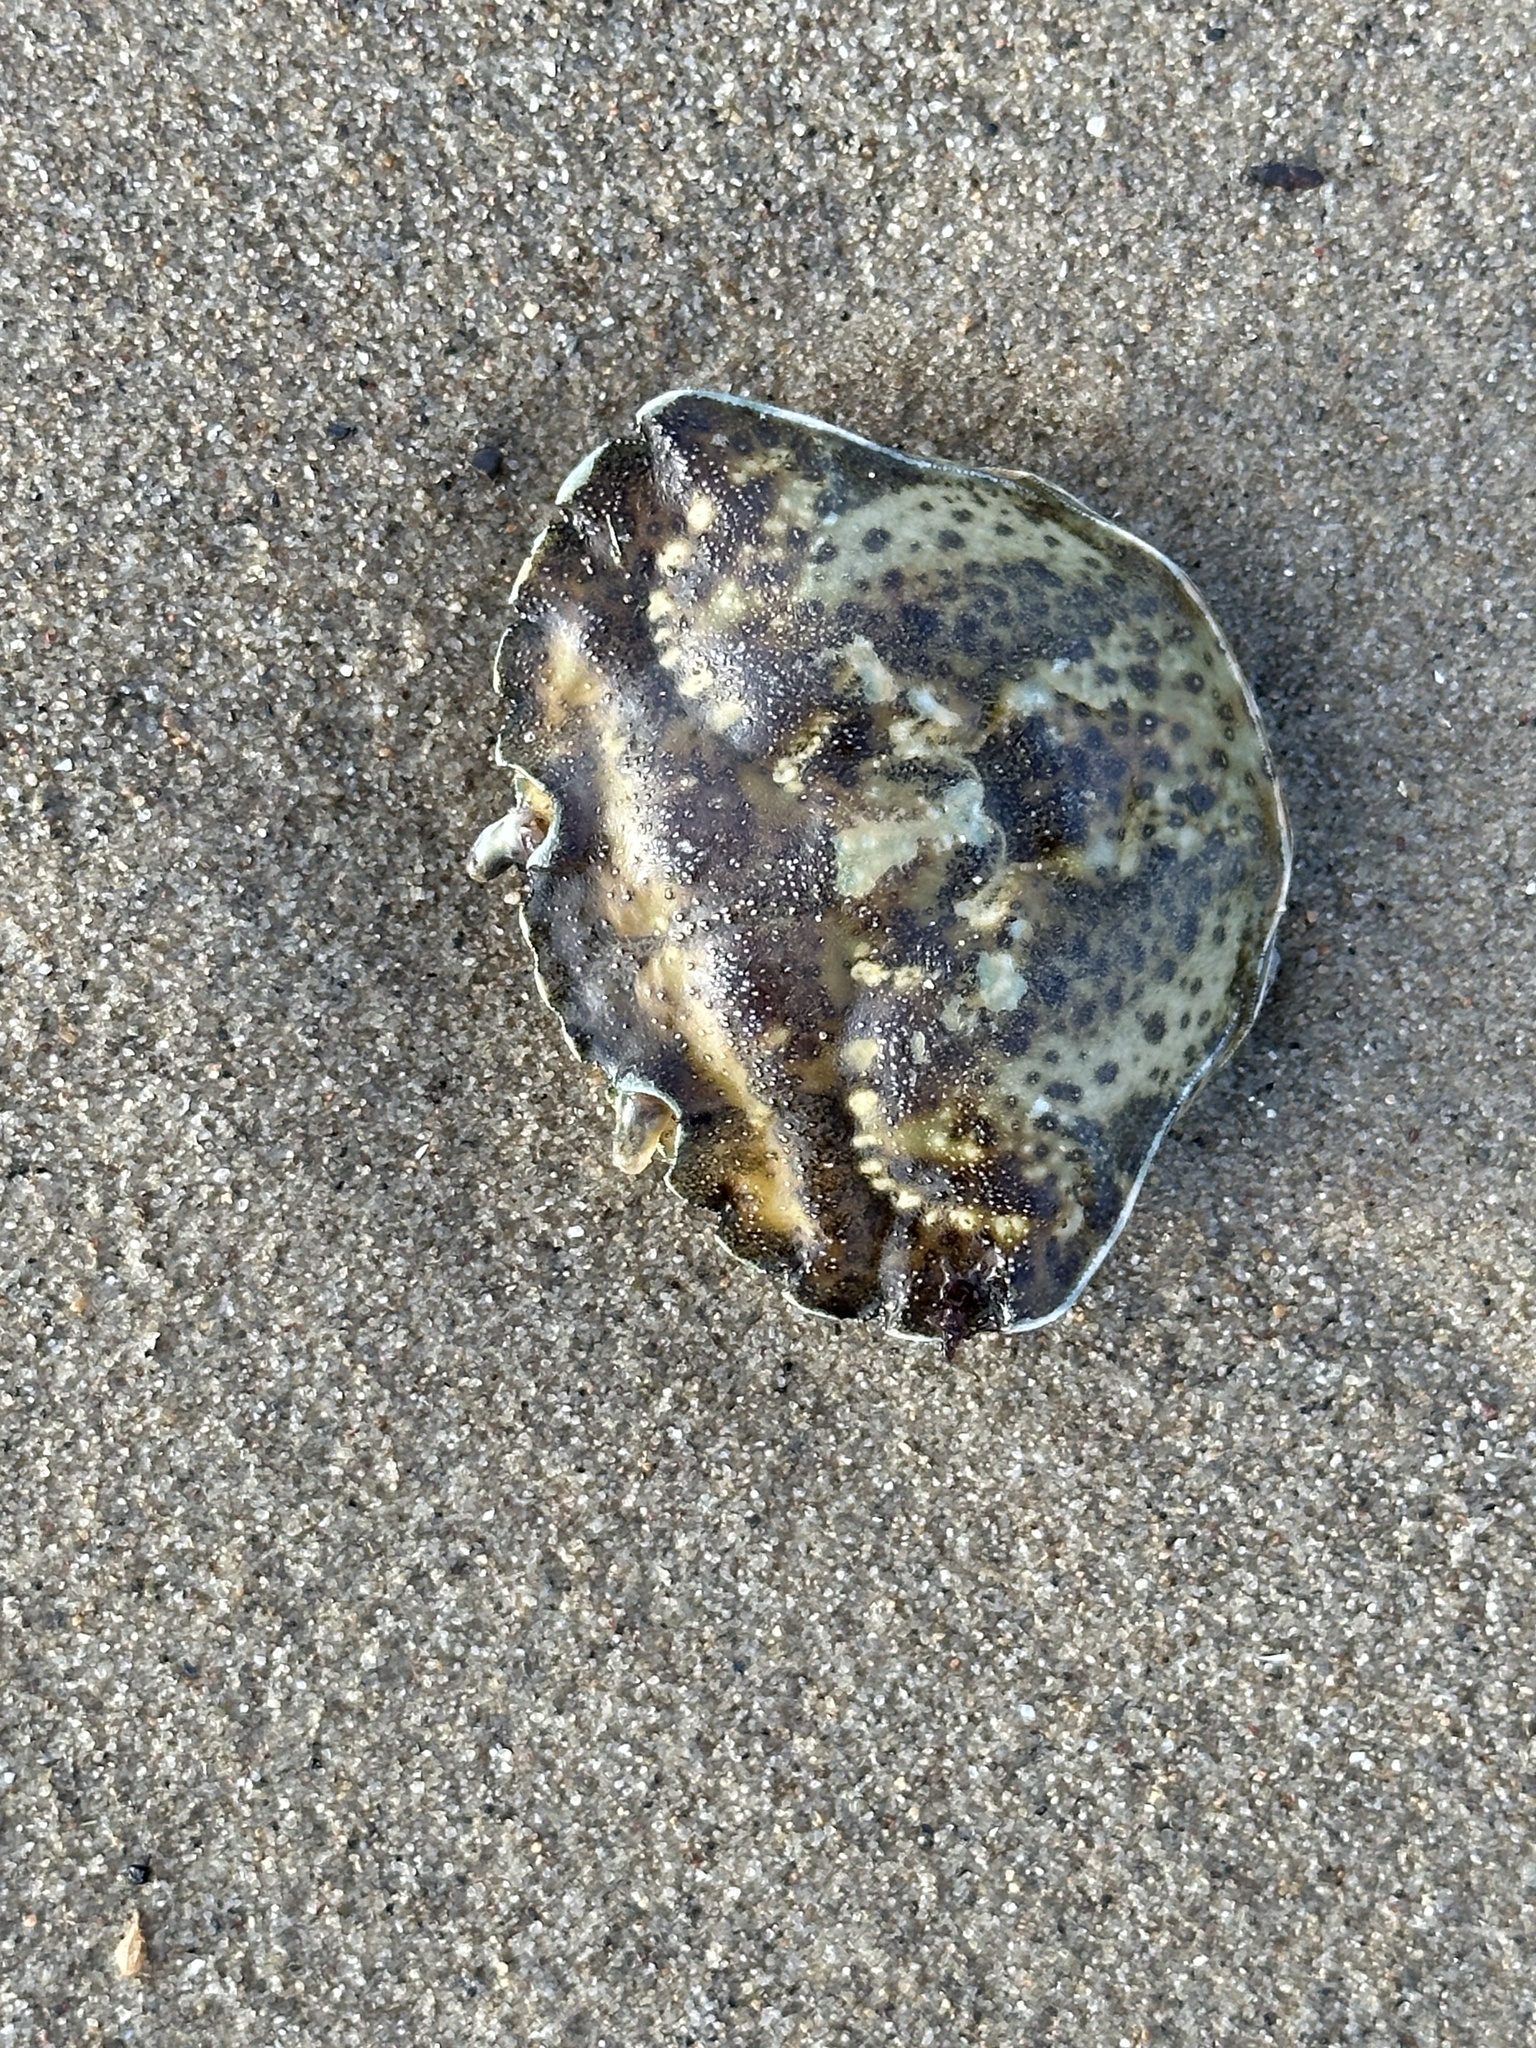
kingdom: Animalia
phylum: Arthropoda
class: Malacostraca
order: Decapoda
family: Carcinidae
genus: Carcinus
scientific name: Carcinus maenas
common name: European green crab
